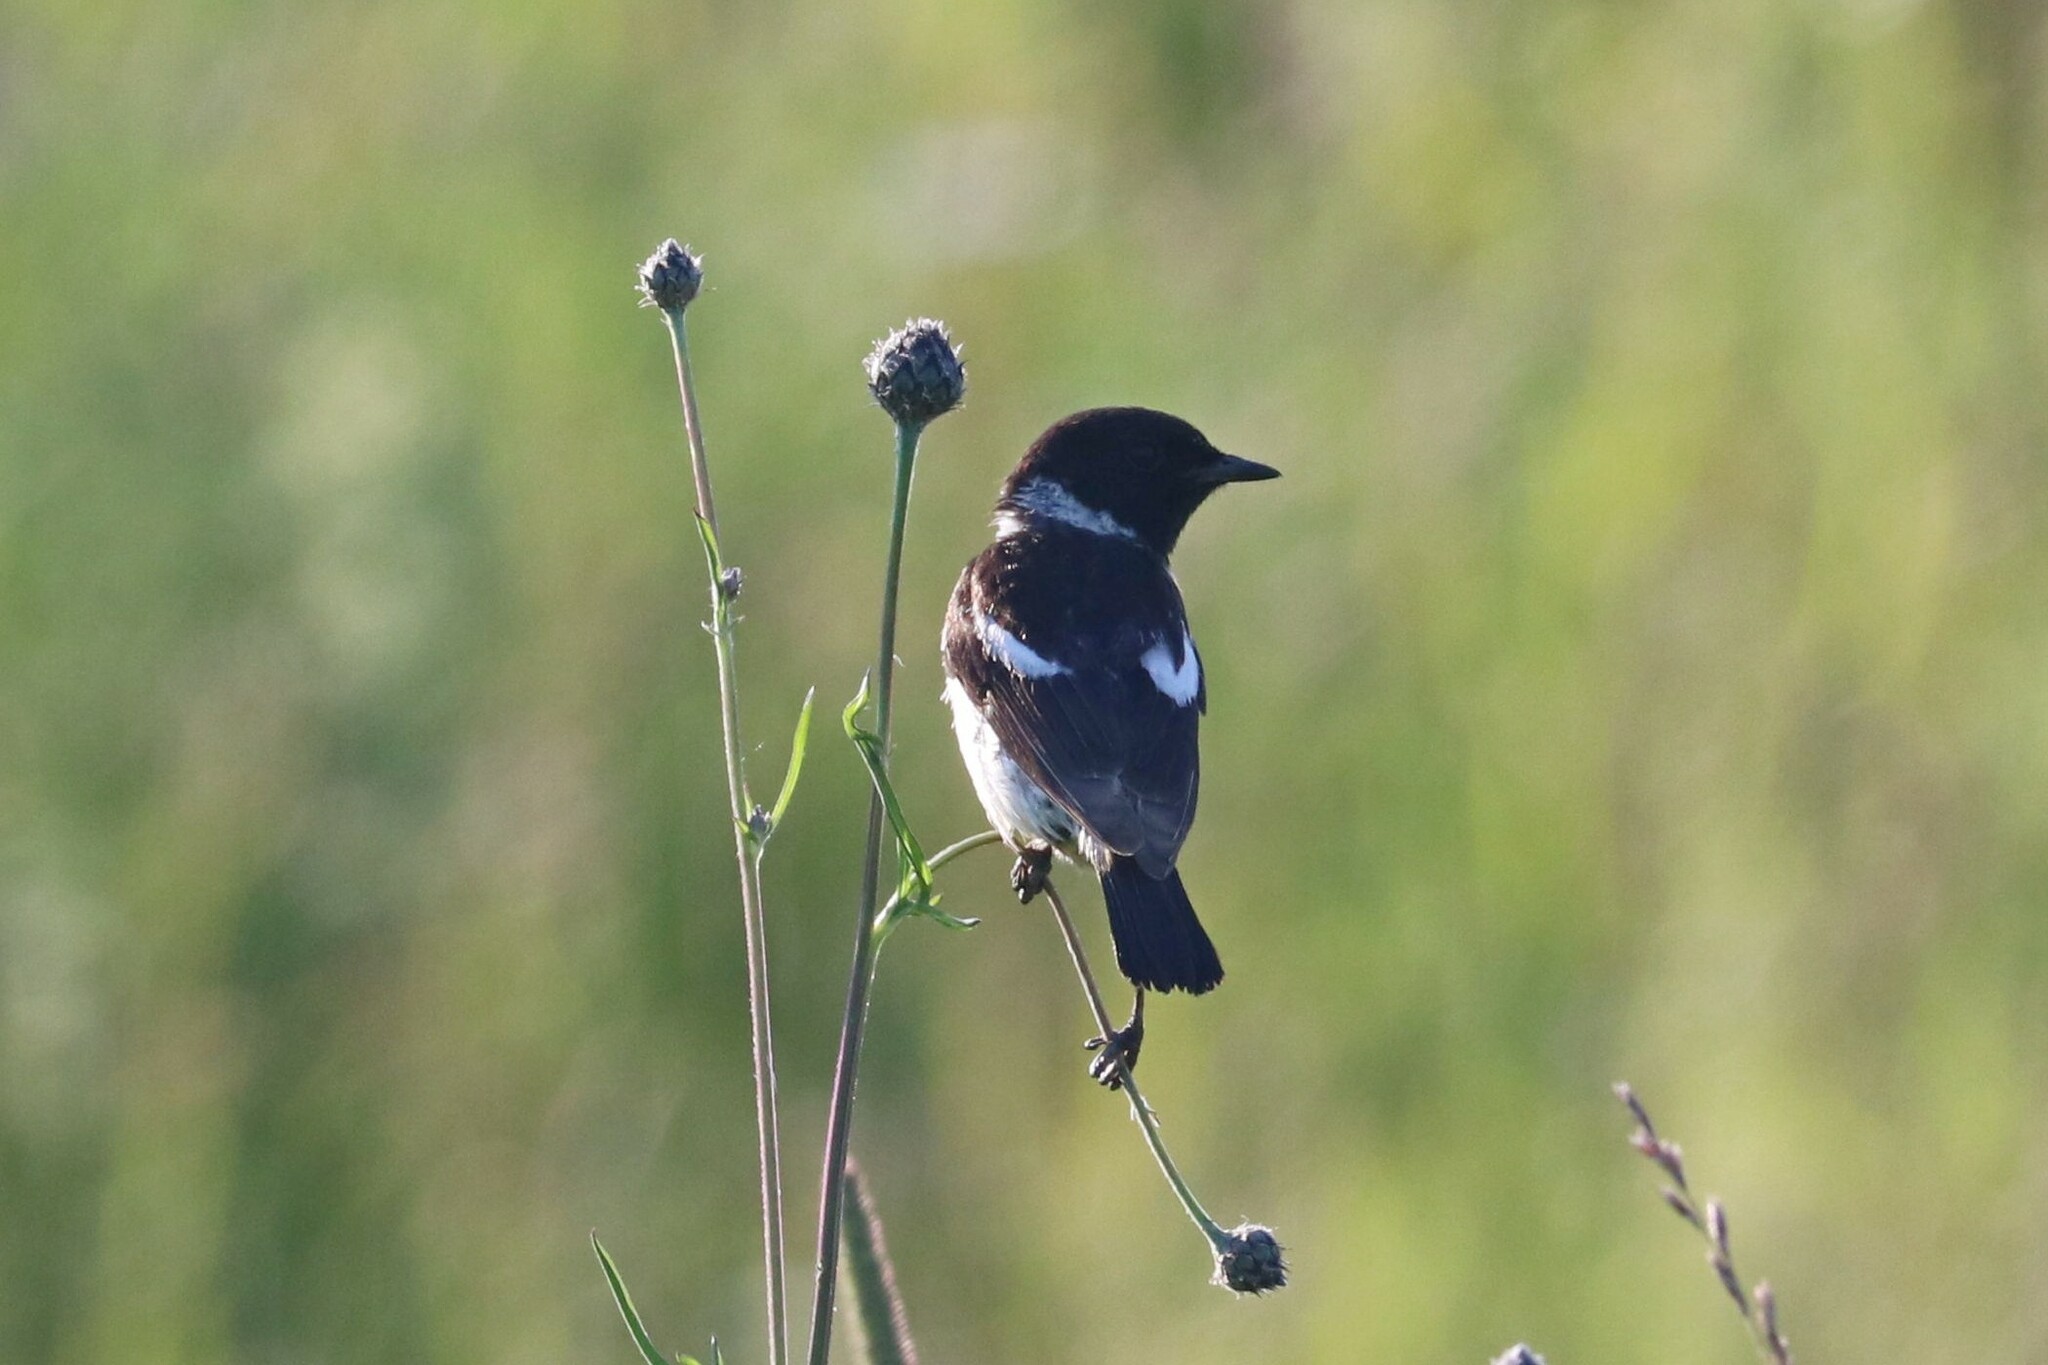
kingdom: Animalia
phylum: Chordata
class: Aves
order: Passeriformes
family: Muscicapidae
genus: Saxicola
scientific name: Saxicola maurus
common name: Siberian stonechat
